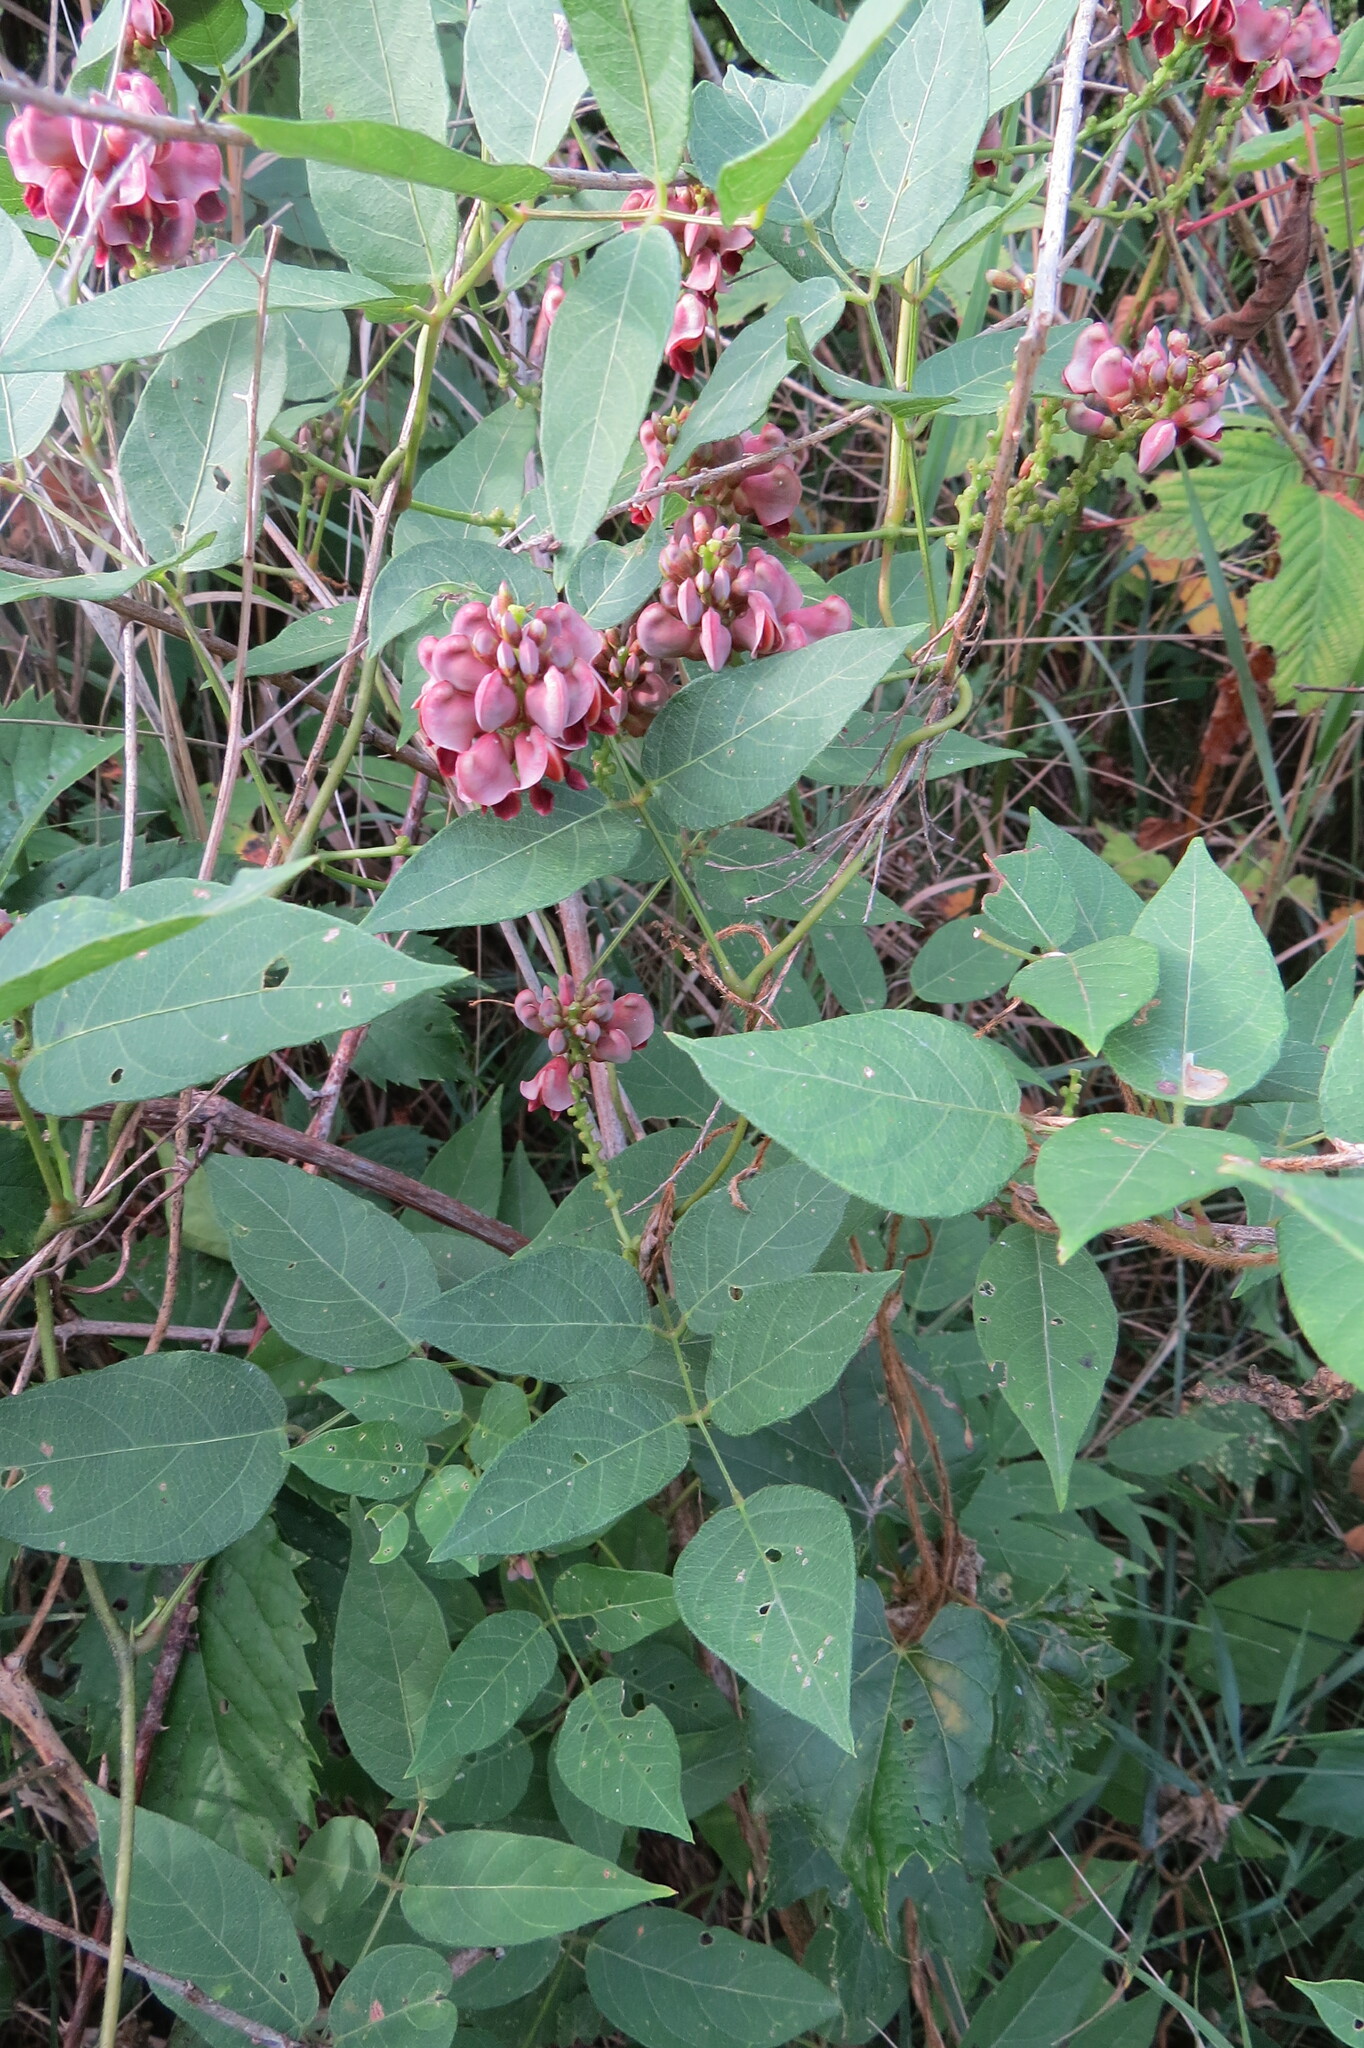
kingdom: Plantae
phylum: Tracheophyta
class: Magnoliopsida
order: Fabales
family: Fabaceae
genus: Apios
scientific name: Apios americana
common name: American potato-bean
